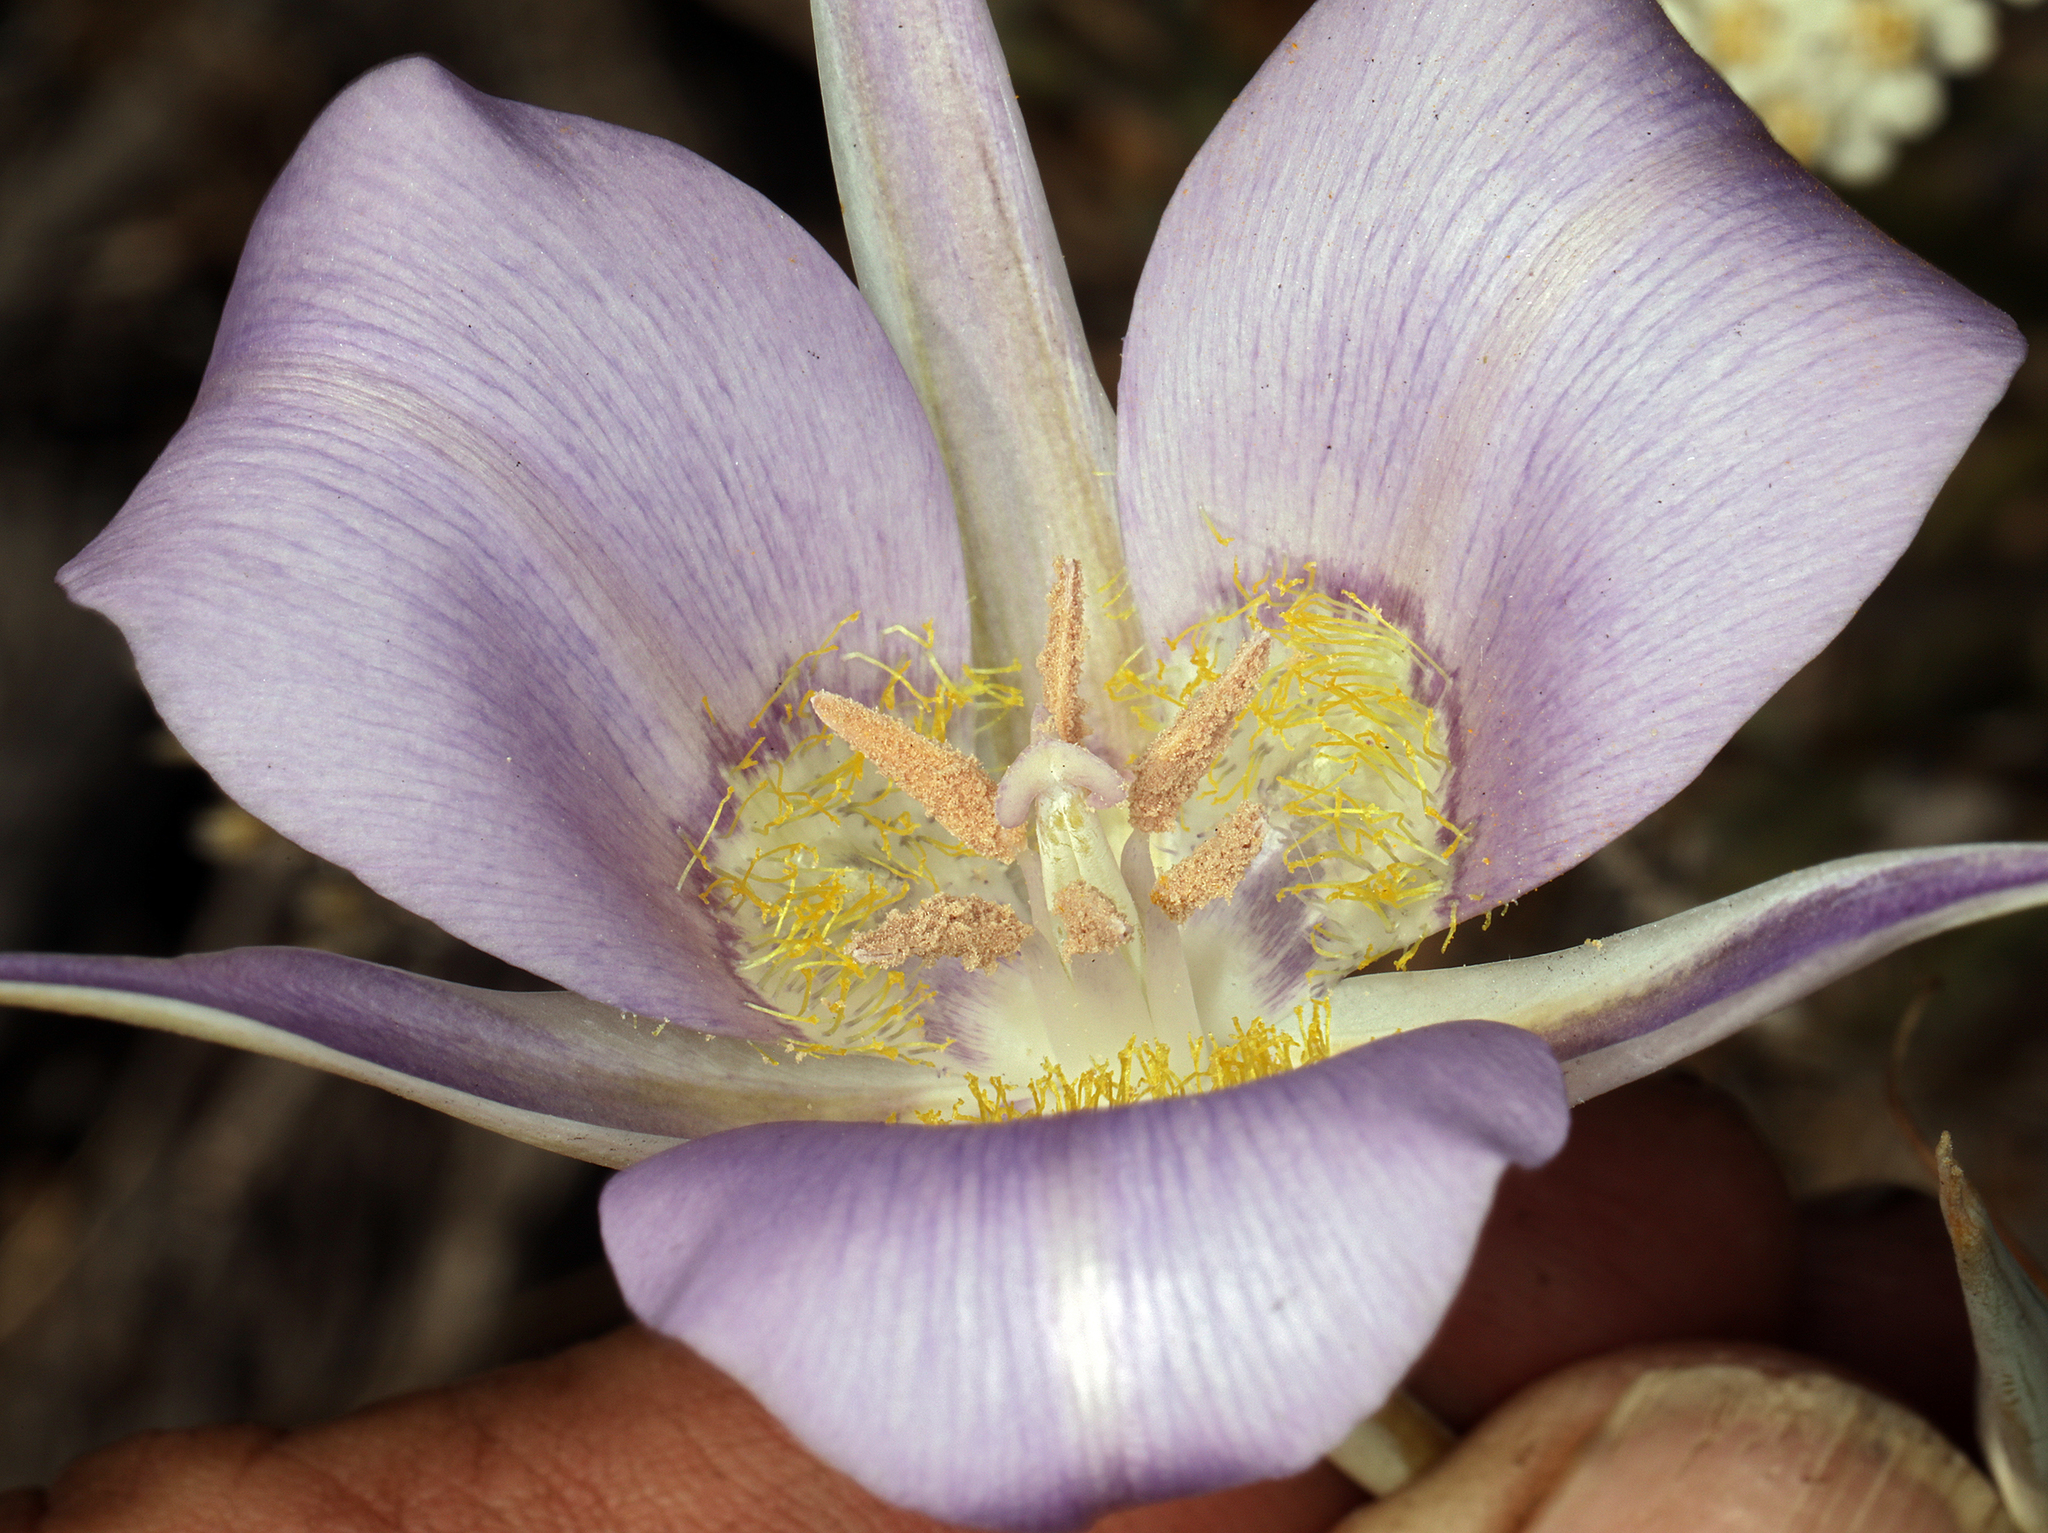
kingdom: Plantae
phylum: Tracheophyta
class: Liliopsida
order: Liliales
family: Liliaceae
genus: Calochortus
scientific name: Calochortus macrocarpus
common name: Green-band mariposa lily
